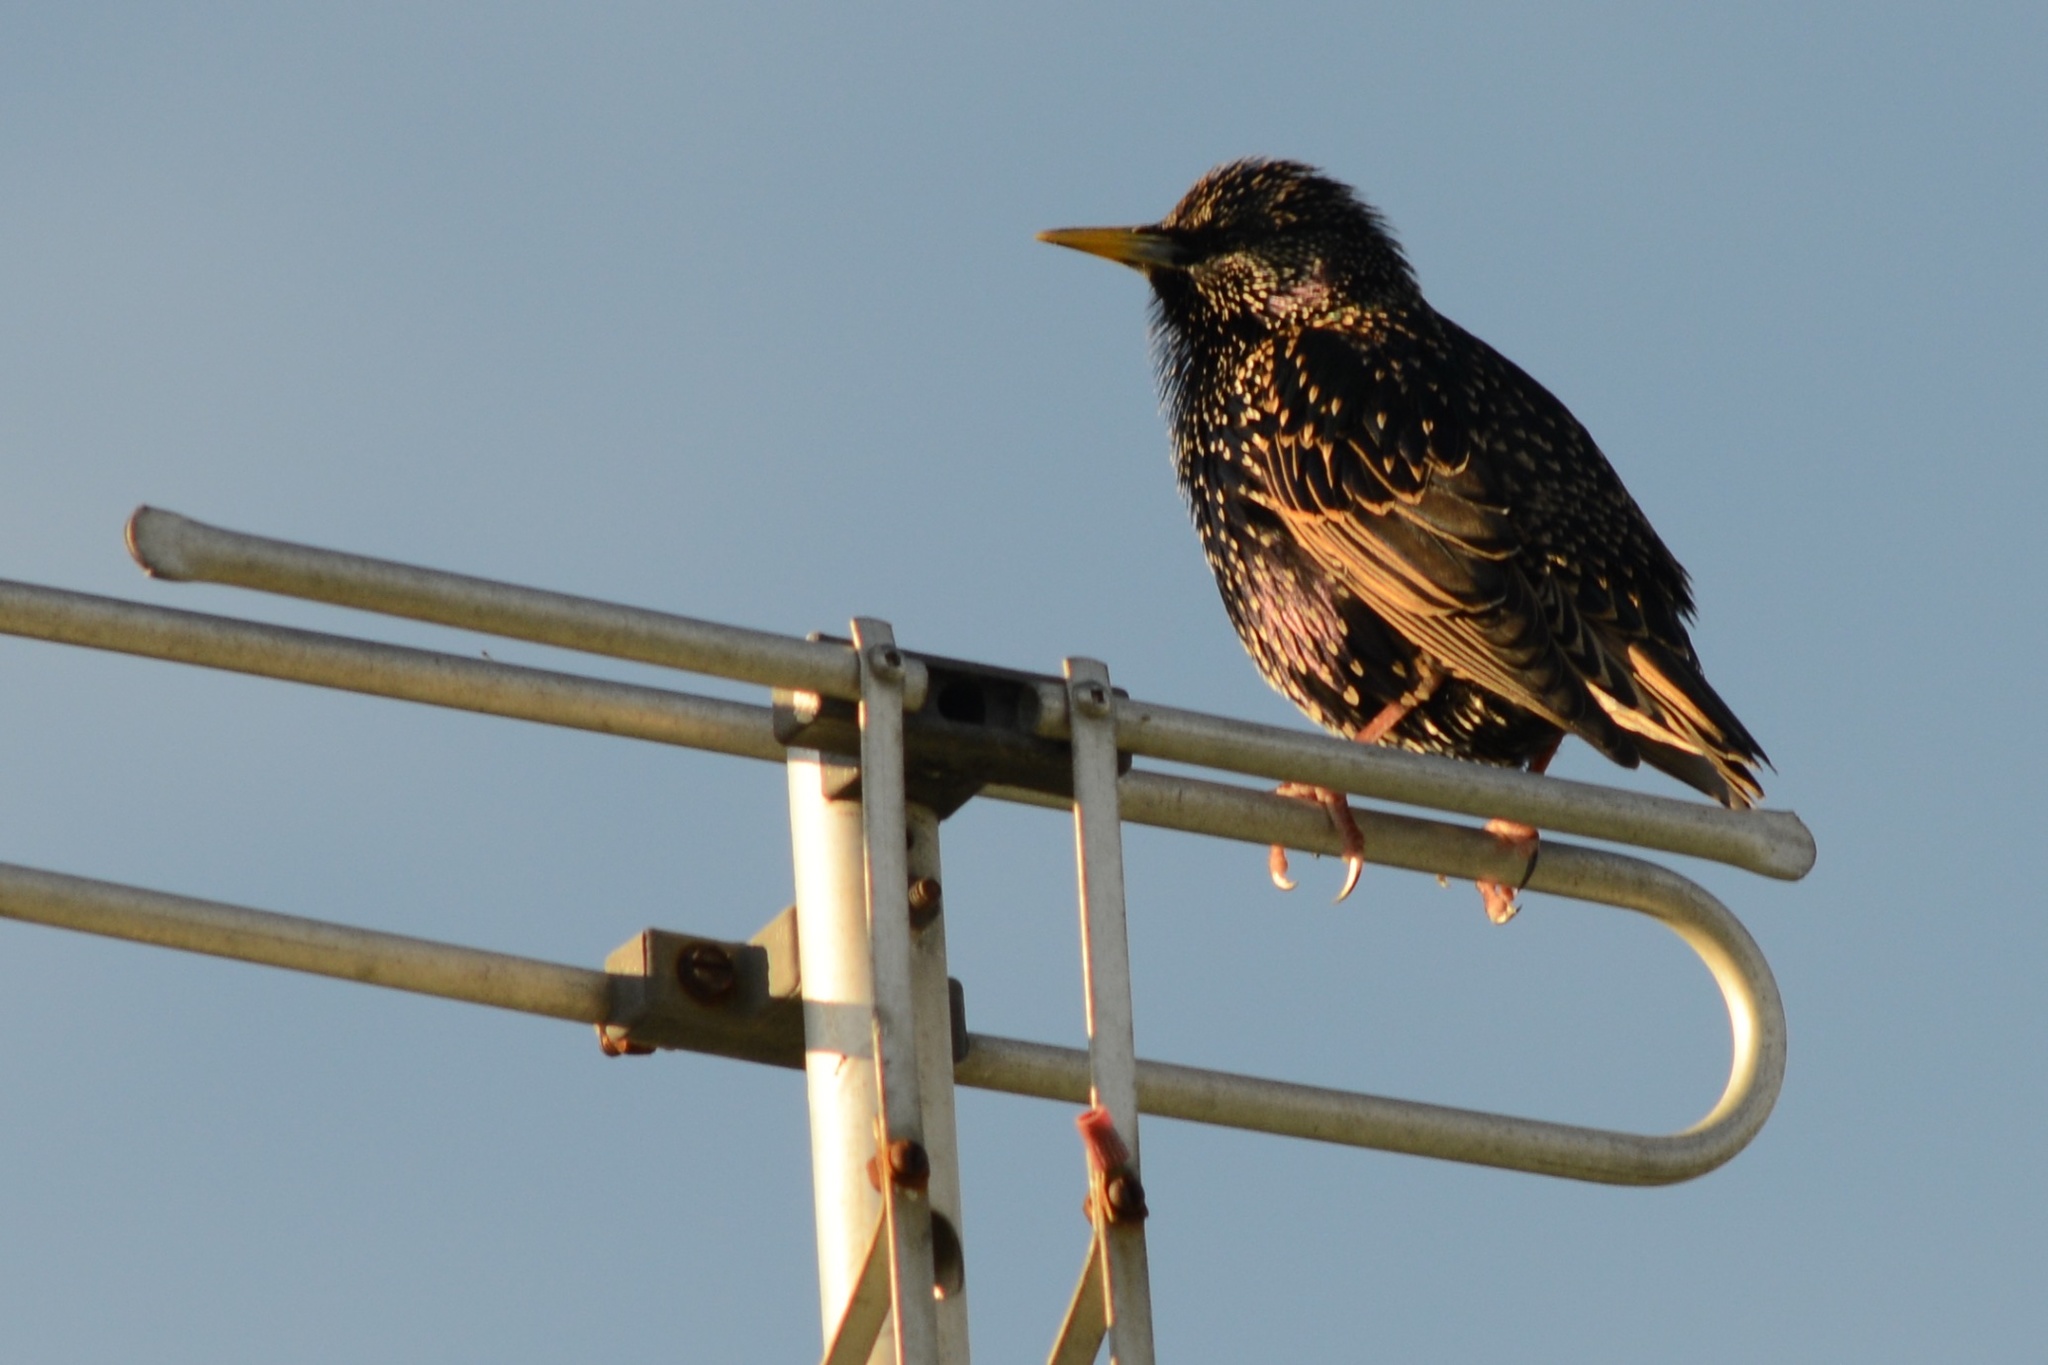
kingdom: Animalia
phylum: Chordata
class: Aves
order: Passeriformes
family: Sturnidae
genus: Sturnus
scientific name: Sturnus vulgaris
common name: Common starling
